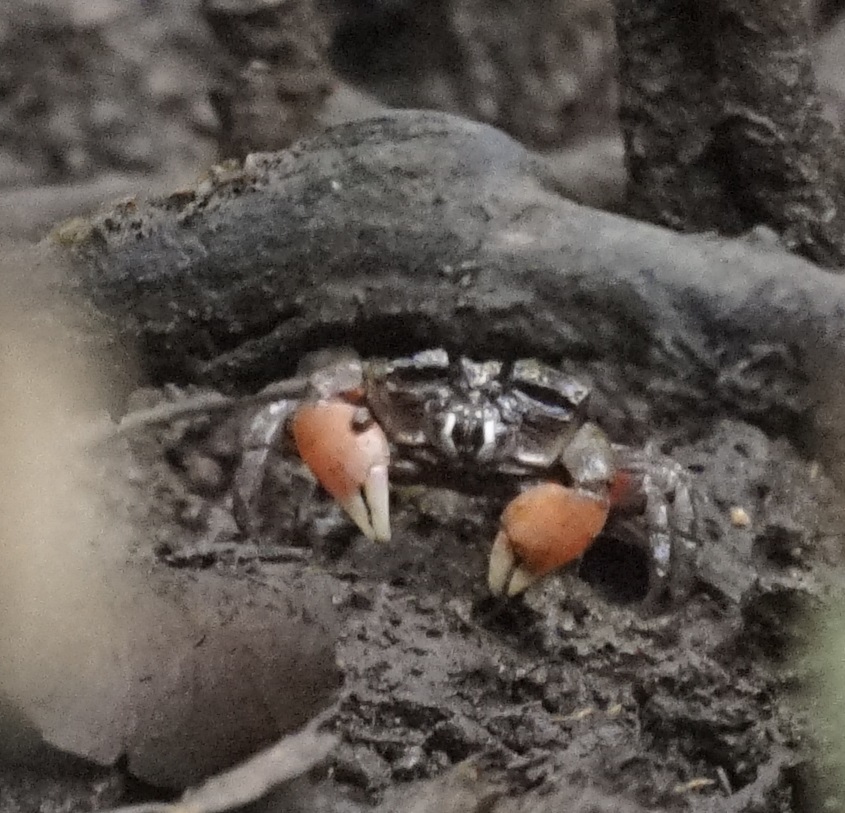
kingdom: Animalia
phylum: Arthropoda
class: Malacostraca
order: Decapoda
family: Heloeciidae
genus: Heloecius
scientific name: Heloecius cordiformis
